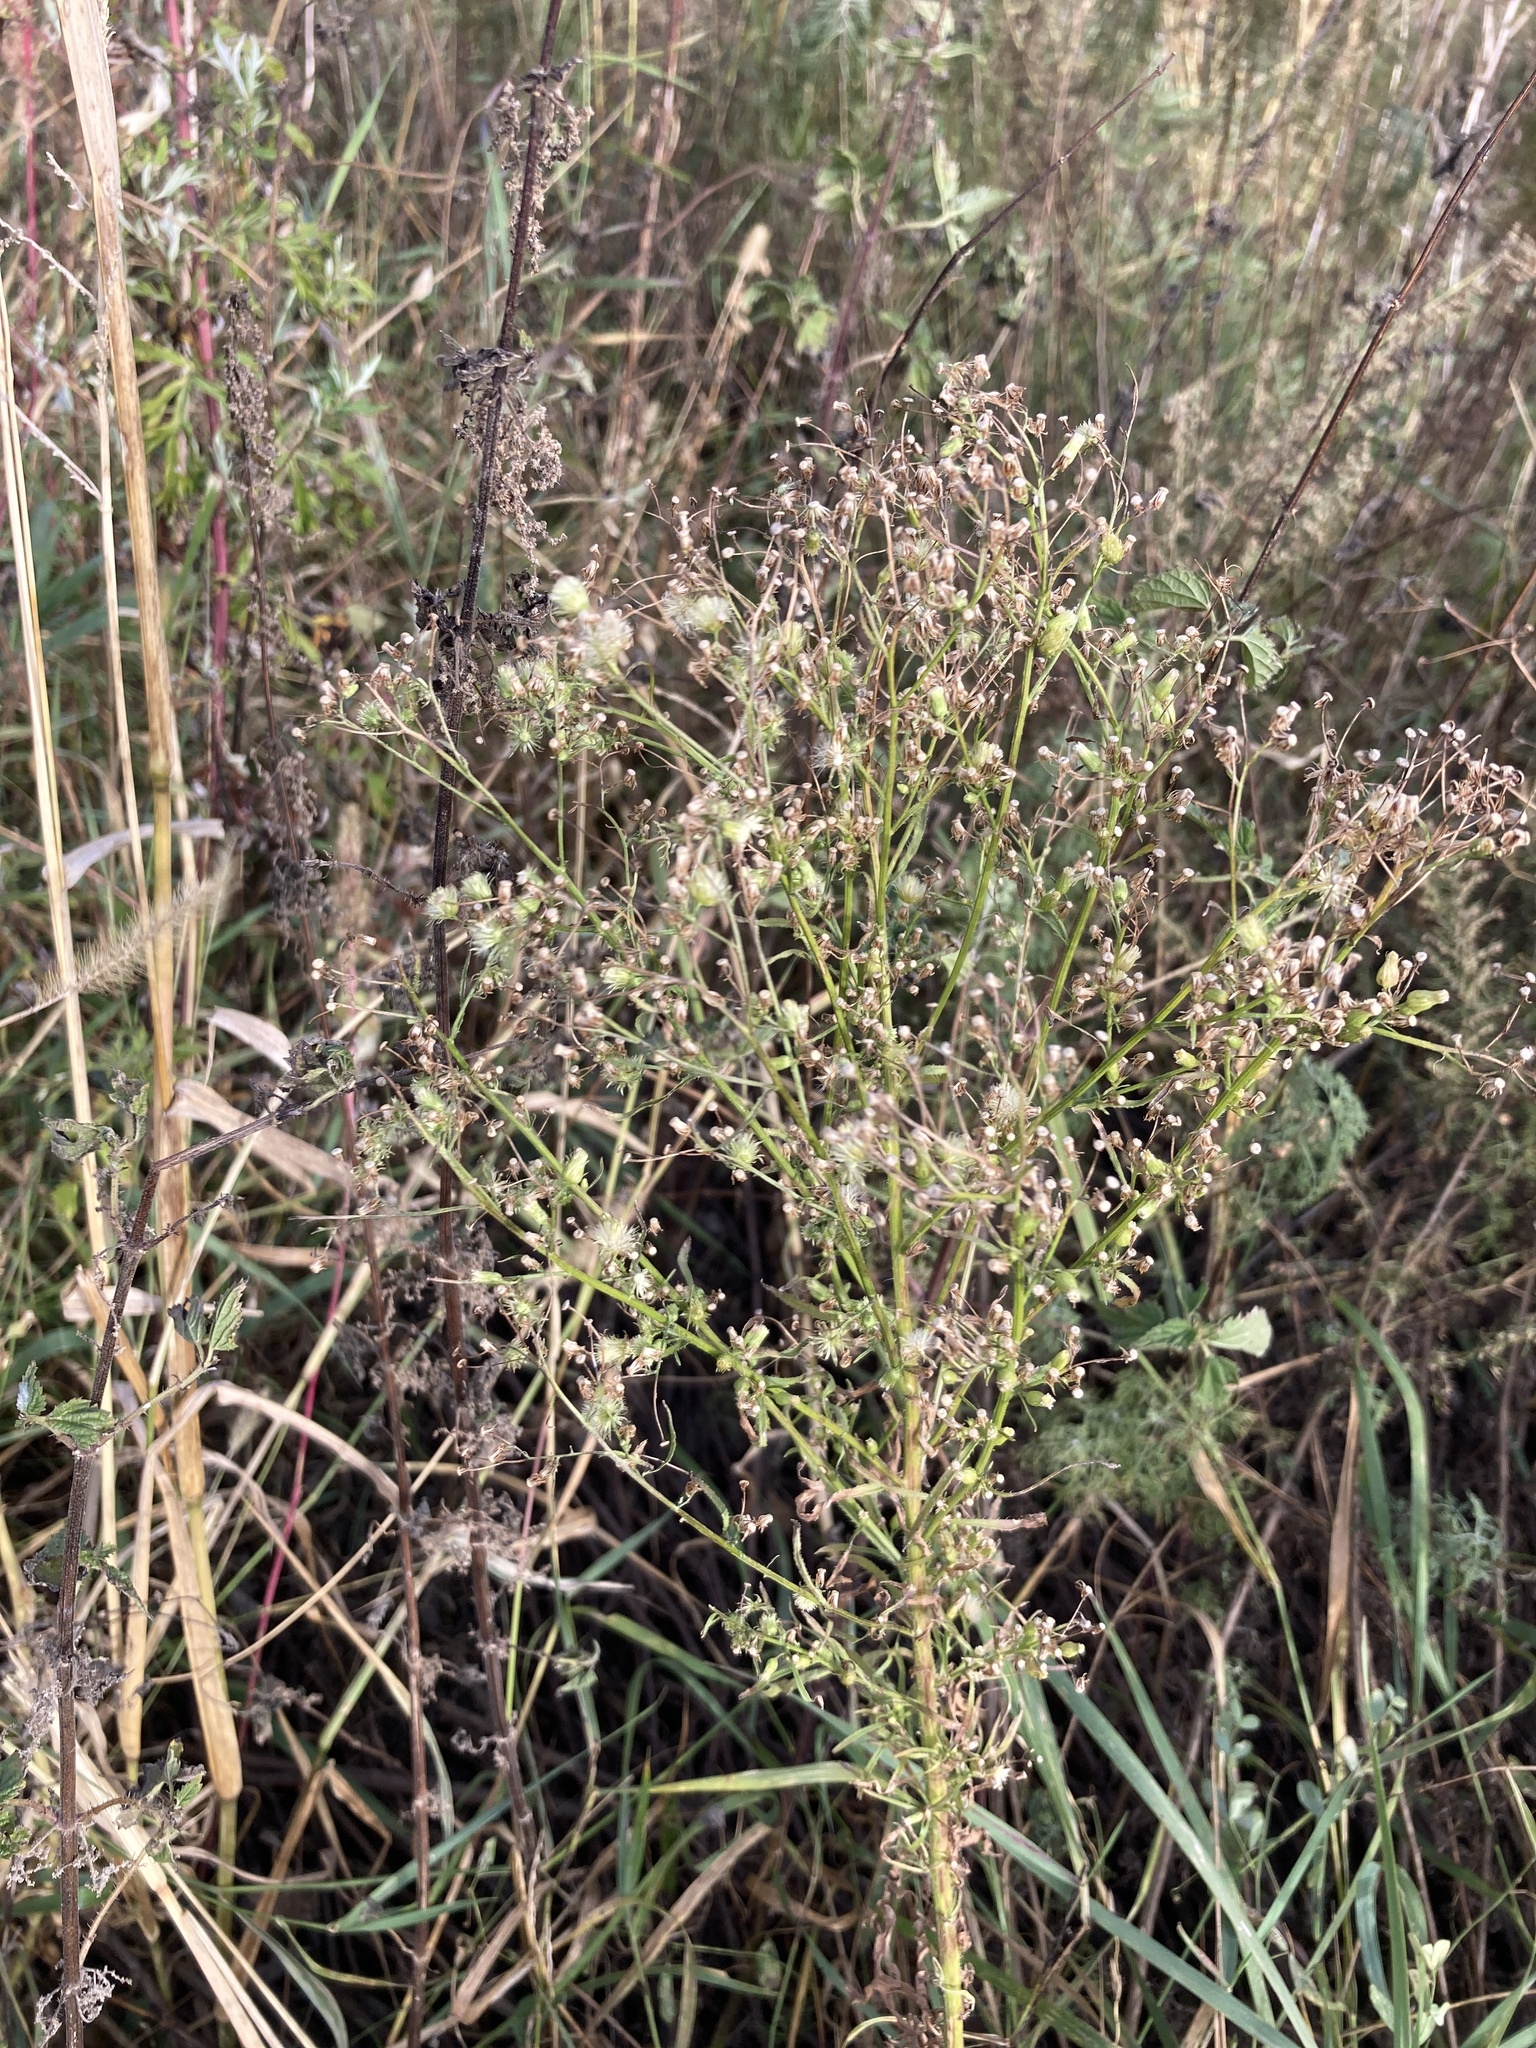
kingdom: Plantae
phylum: Tracheophyta
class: Magnoliopsida
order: Asterales
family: Asteraceae
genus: Erigeron
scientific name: Erigeron canadensis
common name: Canadian fleabane
